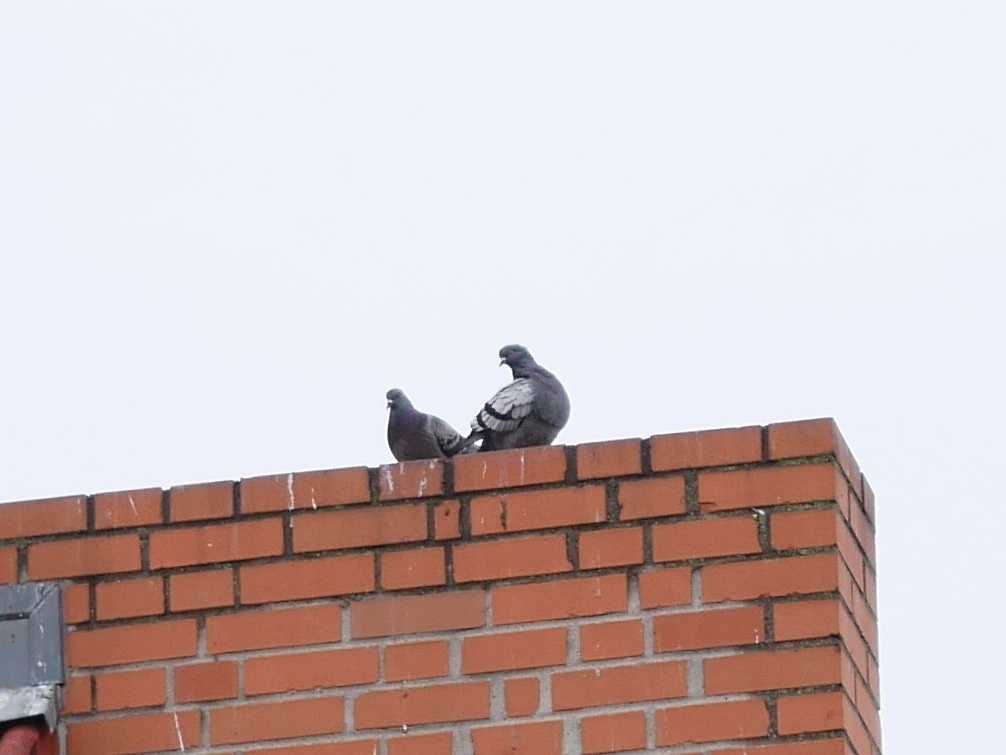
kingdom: Animalia
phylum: Chordata
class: Aves
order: Columbiformes
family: Columbidae
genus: Columba
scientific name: Columba livia
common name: Rock pigeon
